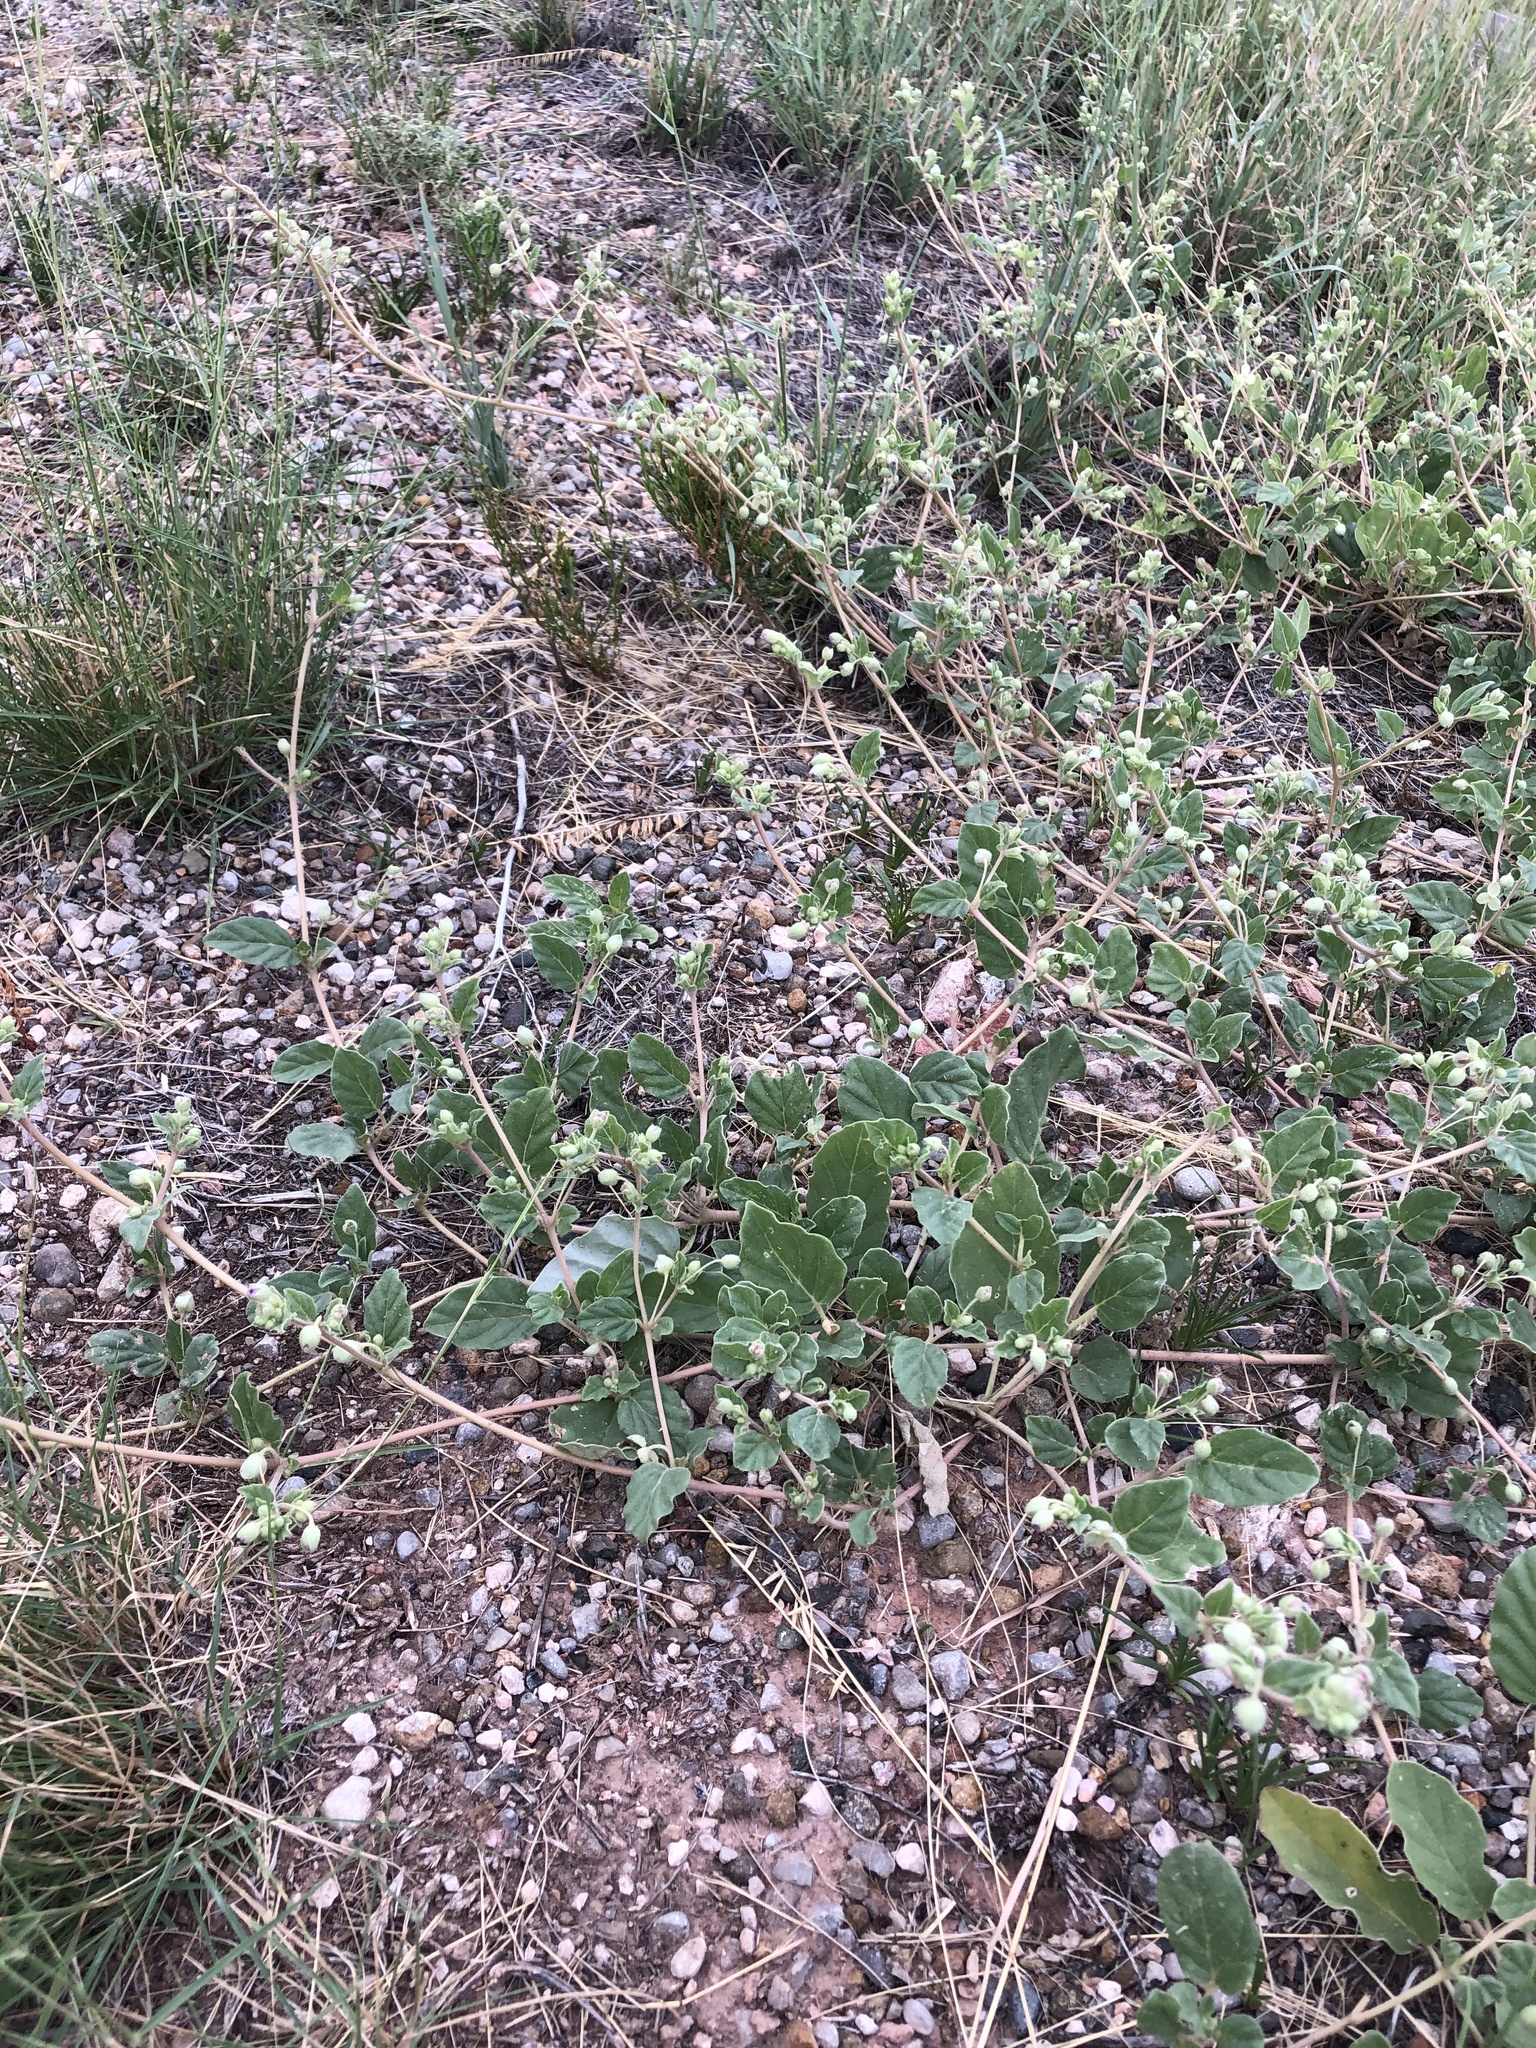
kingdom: Plantae
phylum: Tracheophyta
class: Magnoliopsida
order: Caryophyllales
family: Nyctaginaceae
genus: Allionia
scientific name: Allionia incarnata
